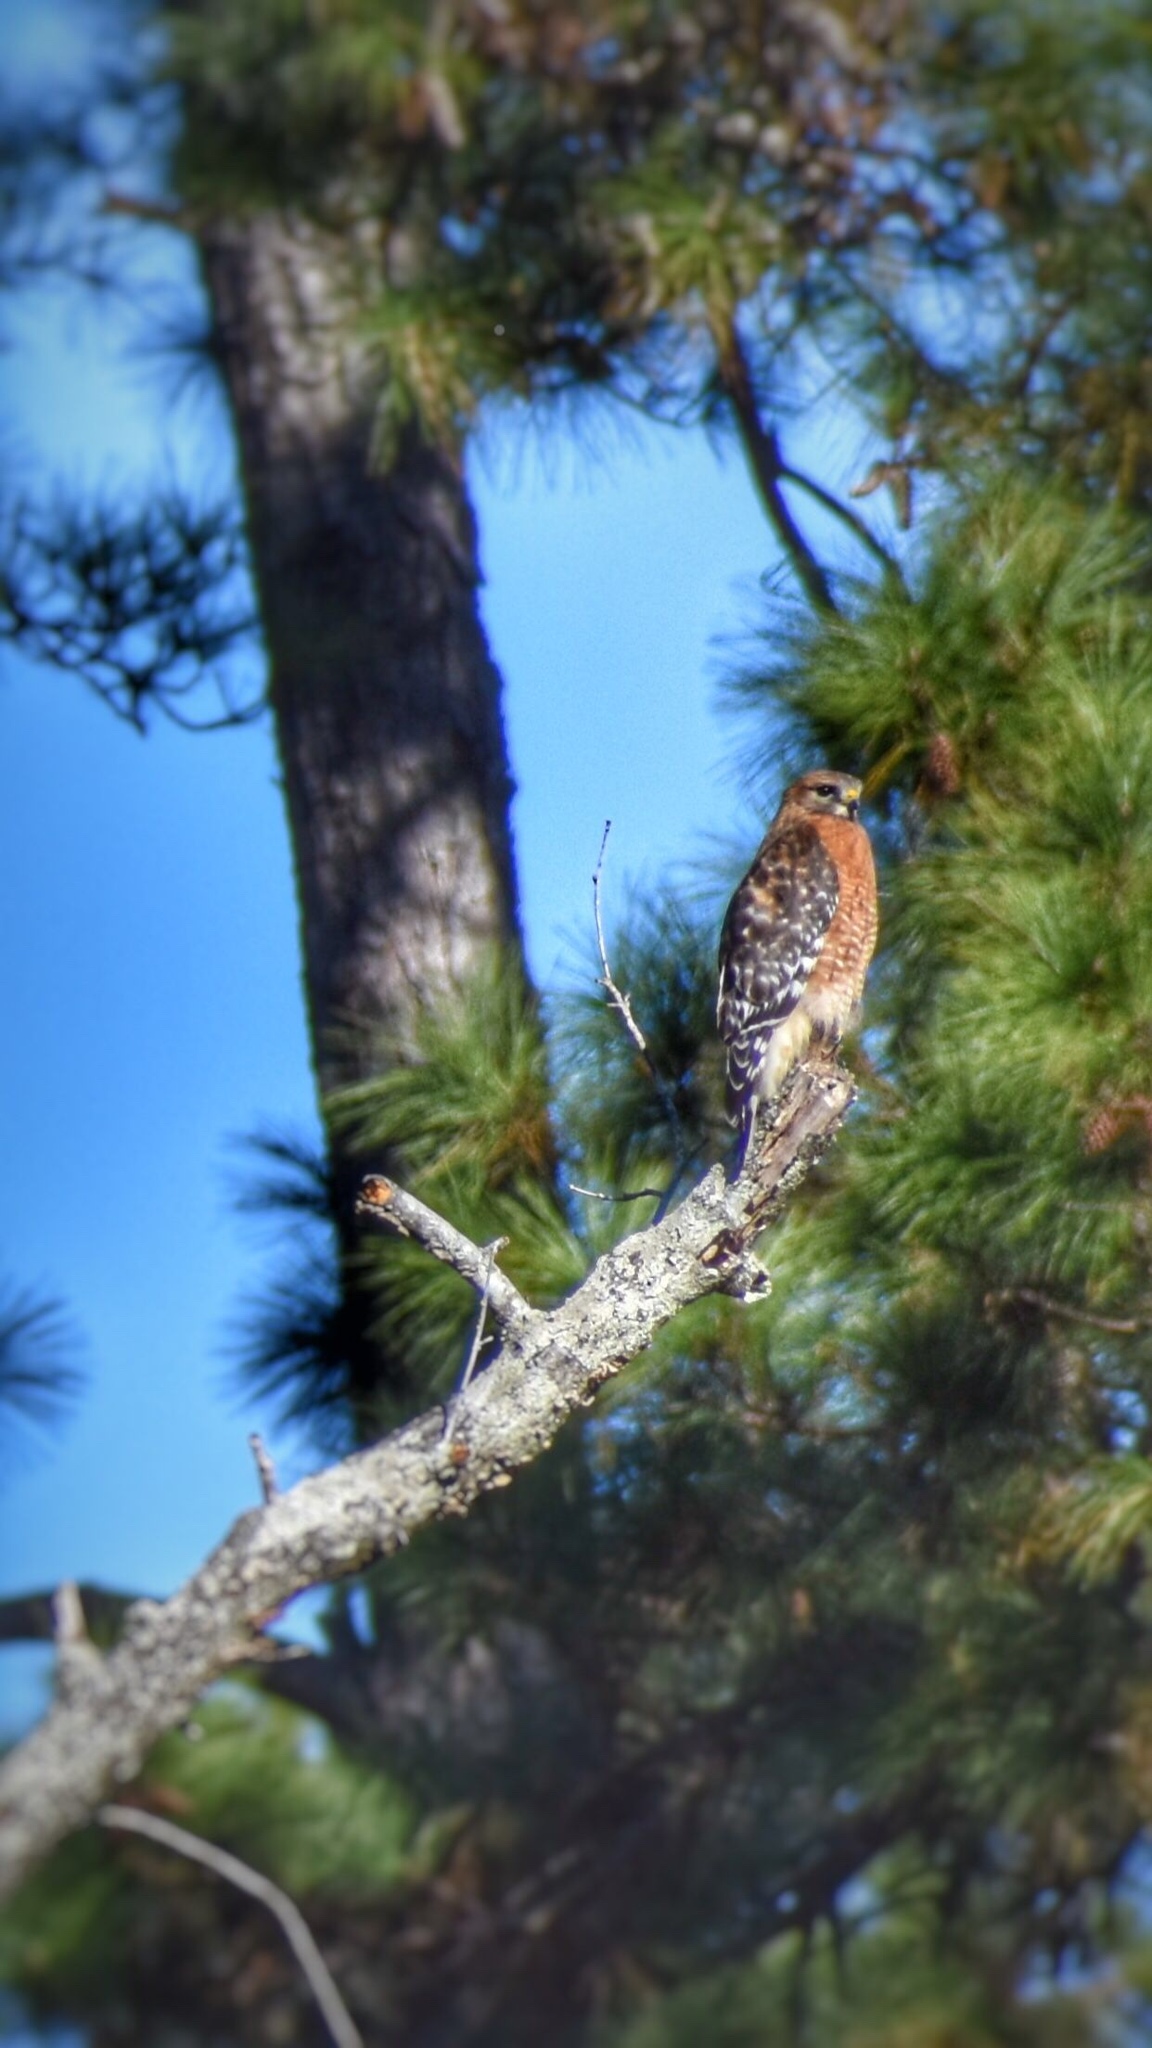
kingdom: Animalia
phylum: Chordata
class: Aves
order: Accipitriformes
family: Accipitridae
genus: Buteo
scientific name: Buteo lineatus
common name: Red-shouldered hawk
